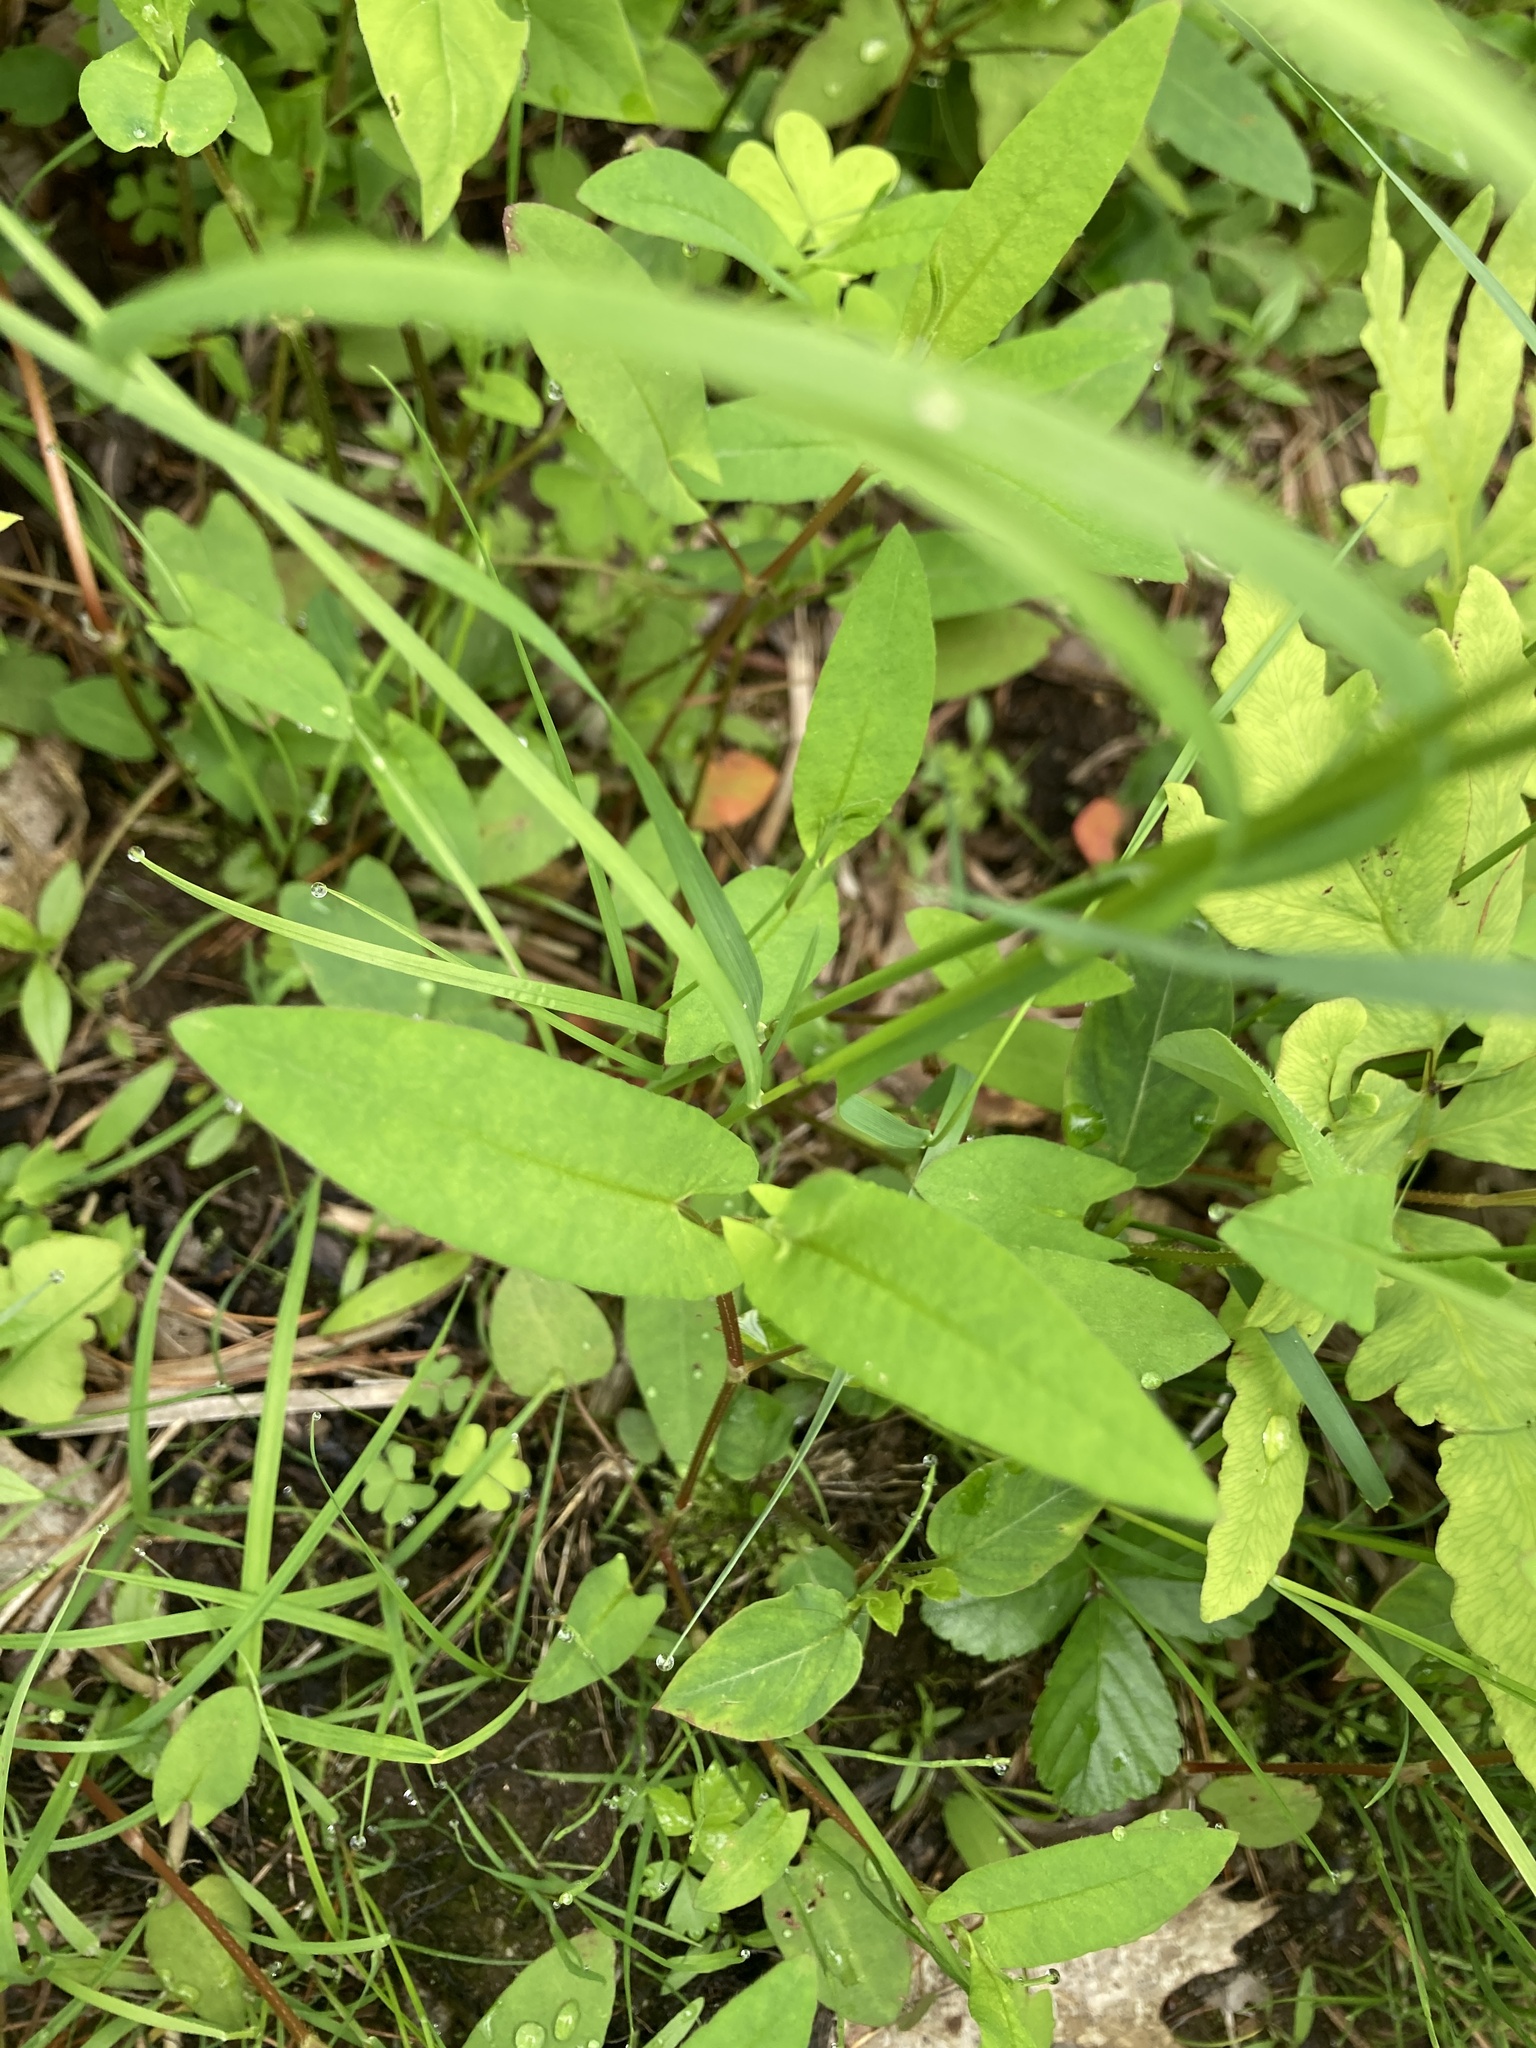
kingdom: Plantae
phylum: Tracheophyta
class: Magnoliopsida
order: Caryophyllales
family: Polygonaceae
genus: Persicaria
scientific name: Persicaria sagittata
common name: American tearthumb
